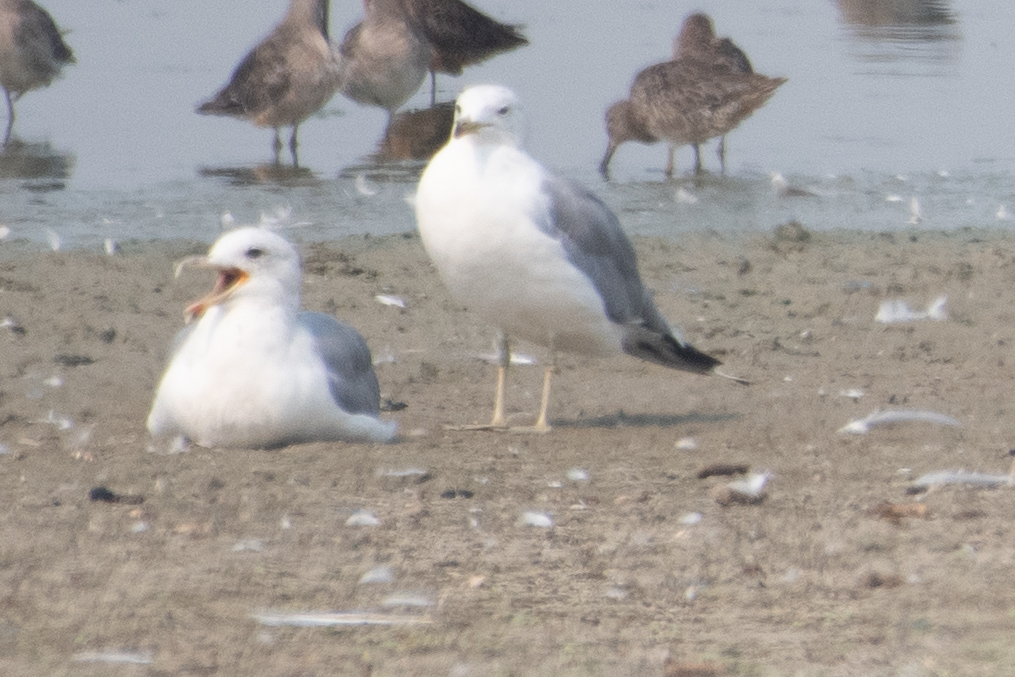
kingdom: Animalia
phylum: Chordata
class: Aves
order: Charadriiformes
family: Laridae
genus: Larus
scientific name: Larus californicus
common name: California gull
